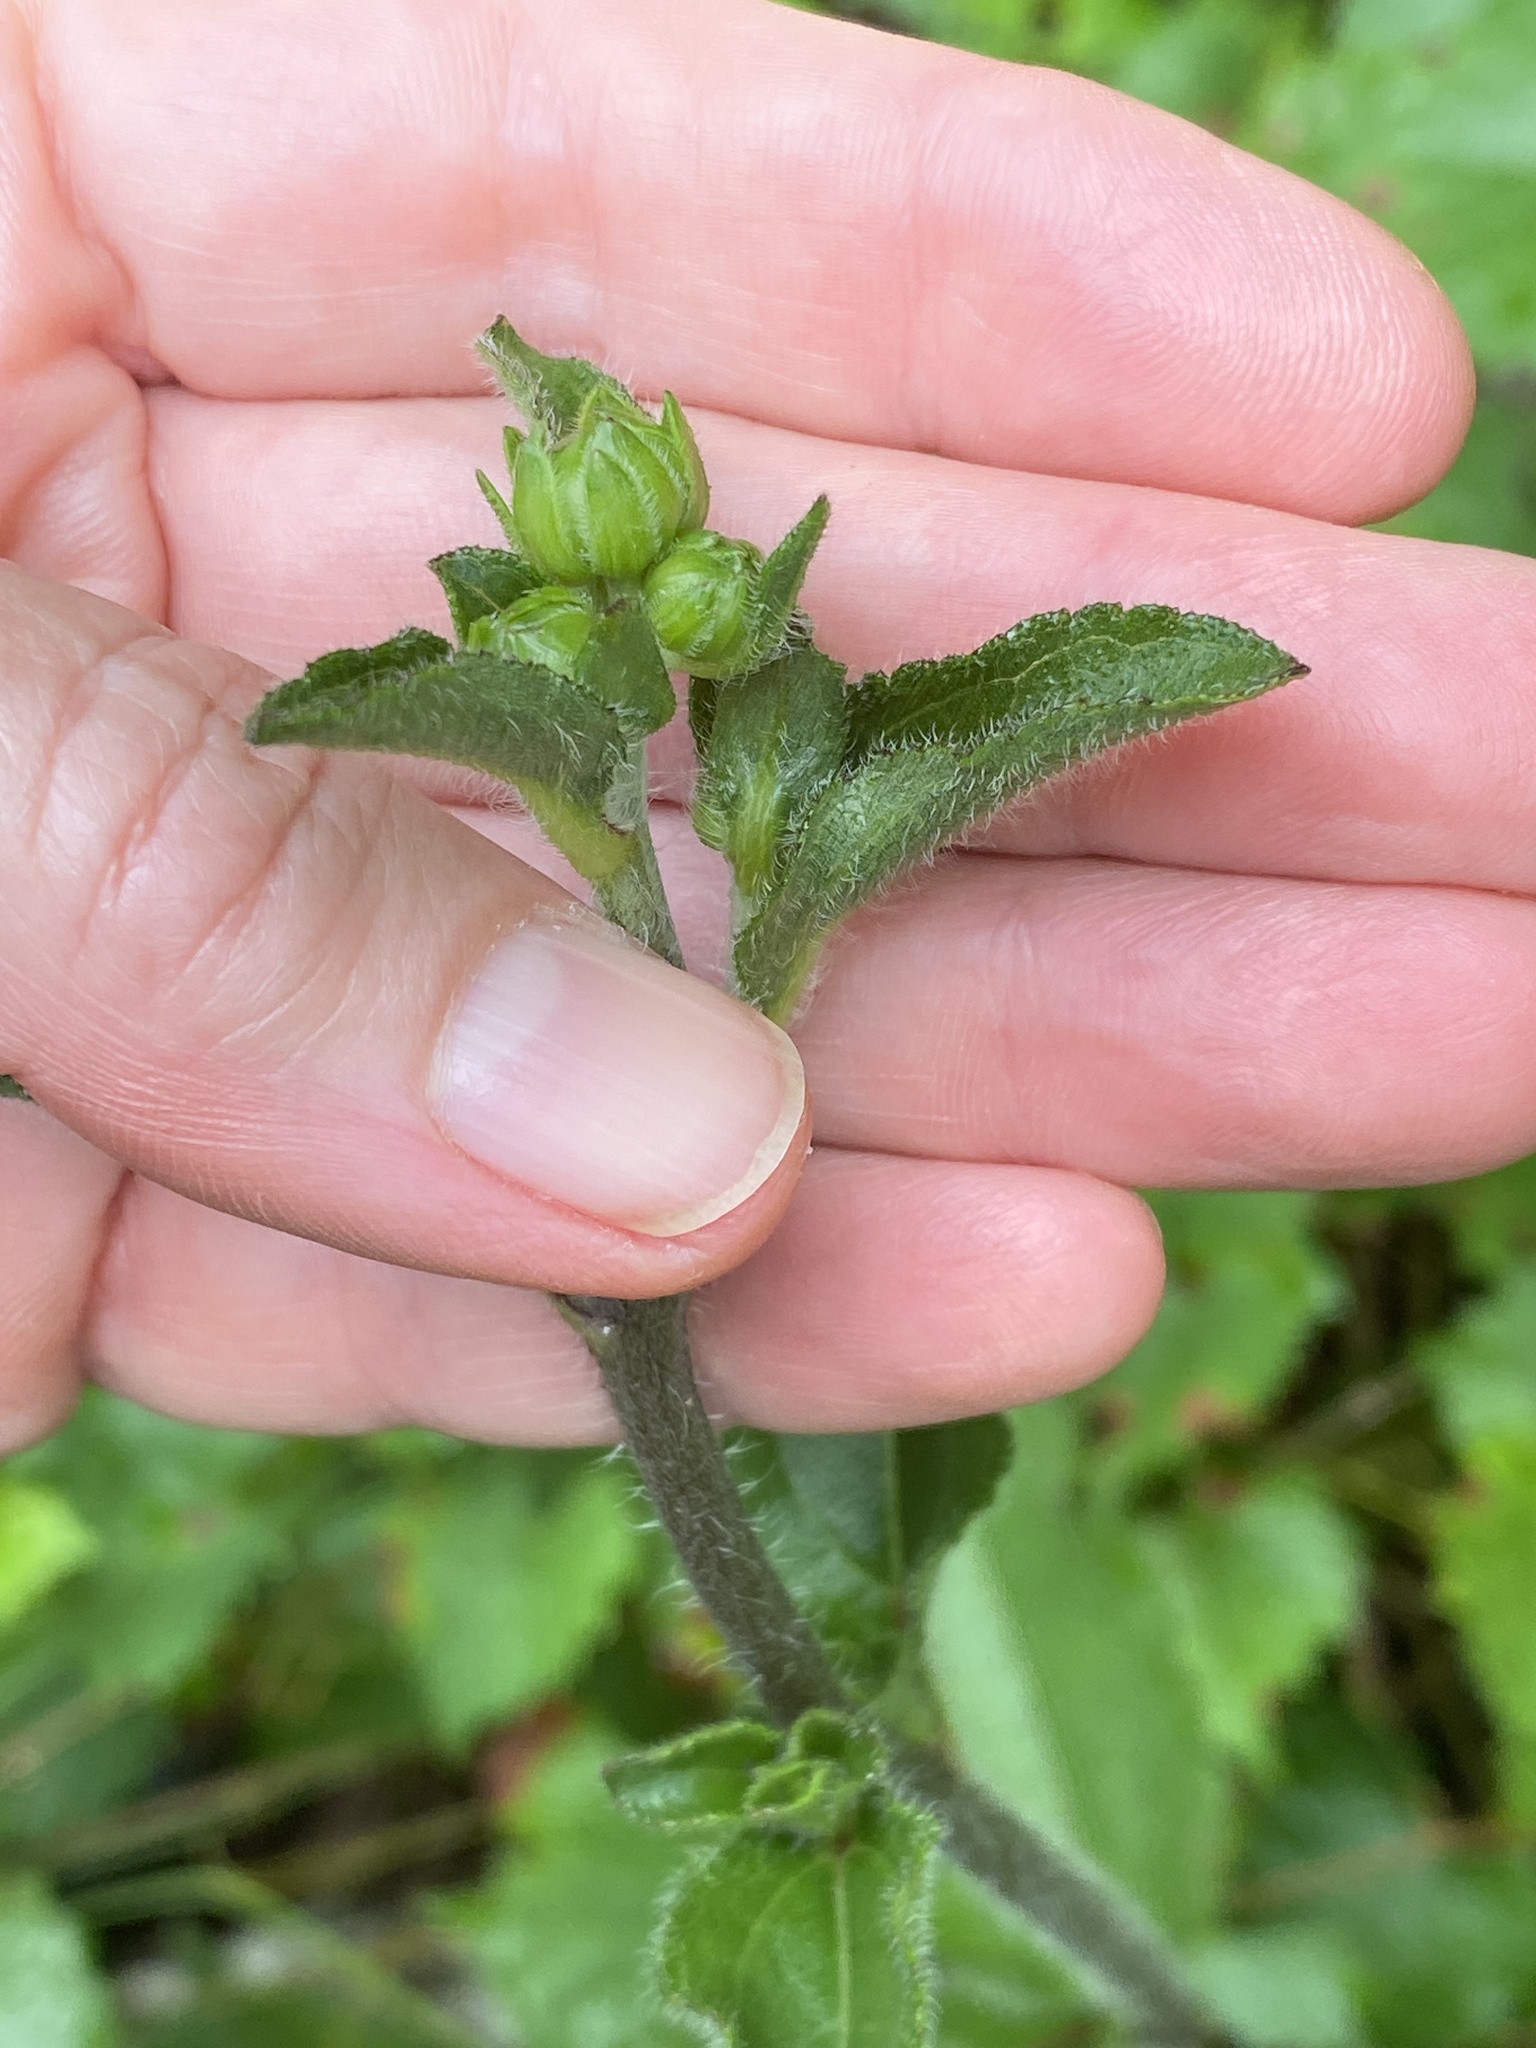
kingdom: Plantae
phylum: Tracheophyta
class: Magnoliopsida
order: Asterales
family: Asteraceae
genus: Helianthus
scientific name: Helianthus atrorubens
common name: Dark-eyed sunflower
